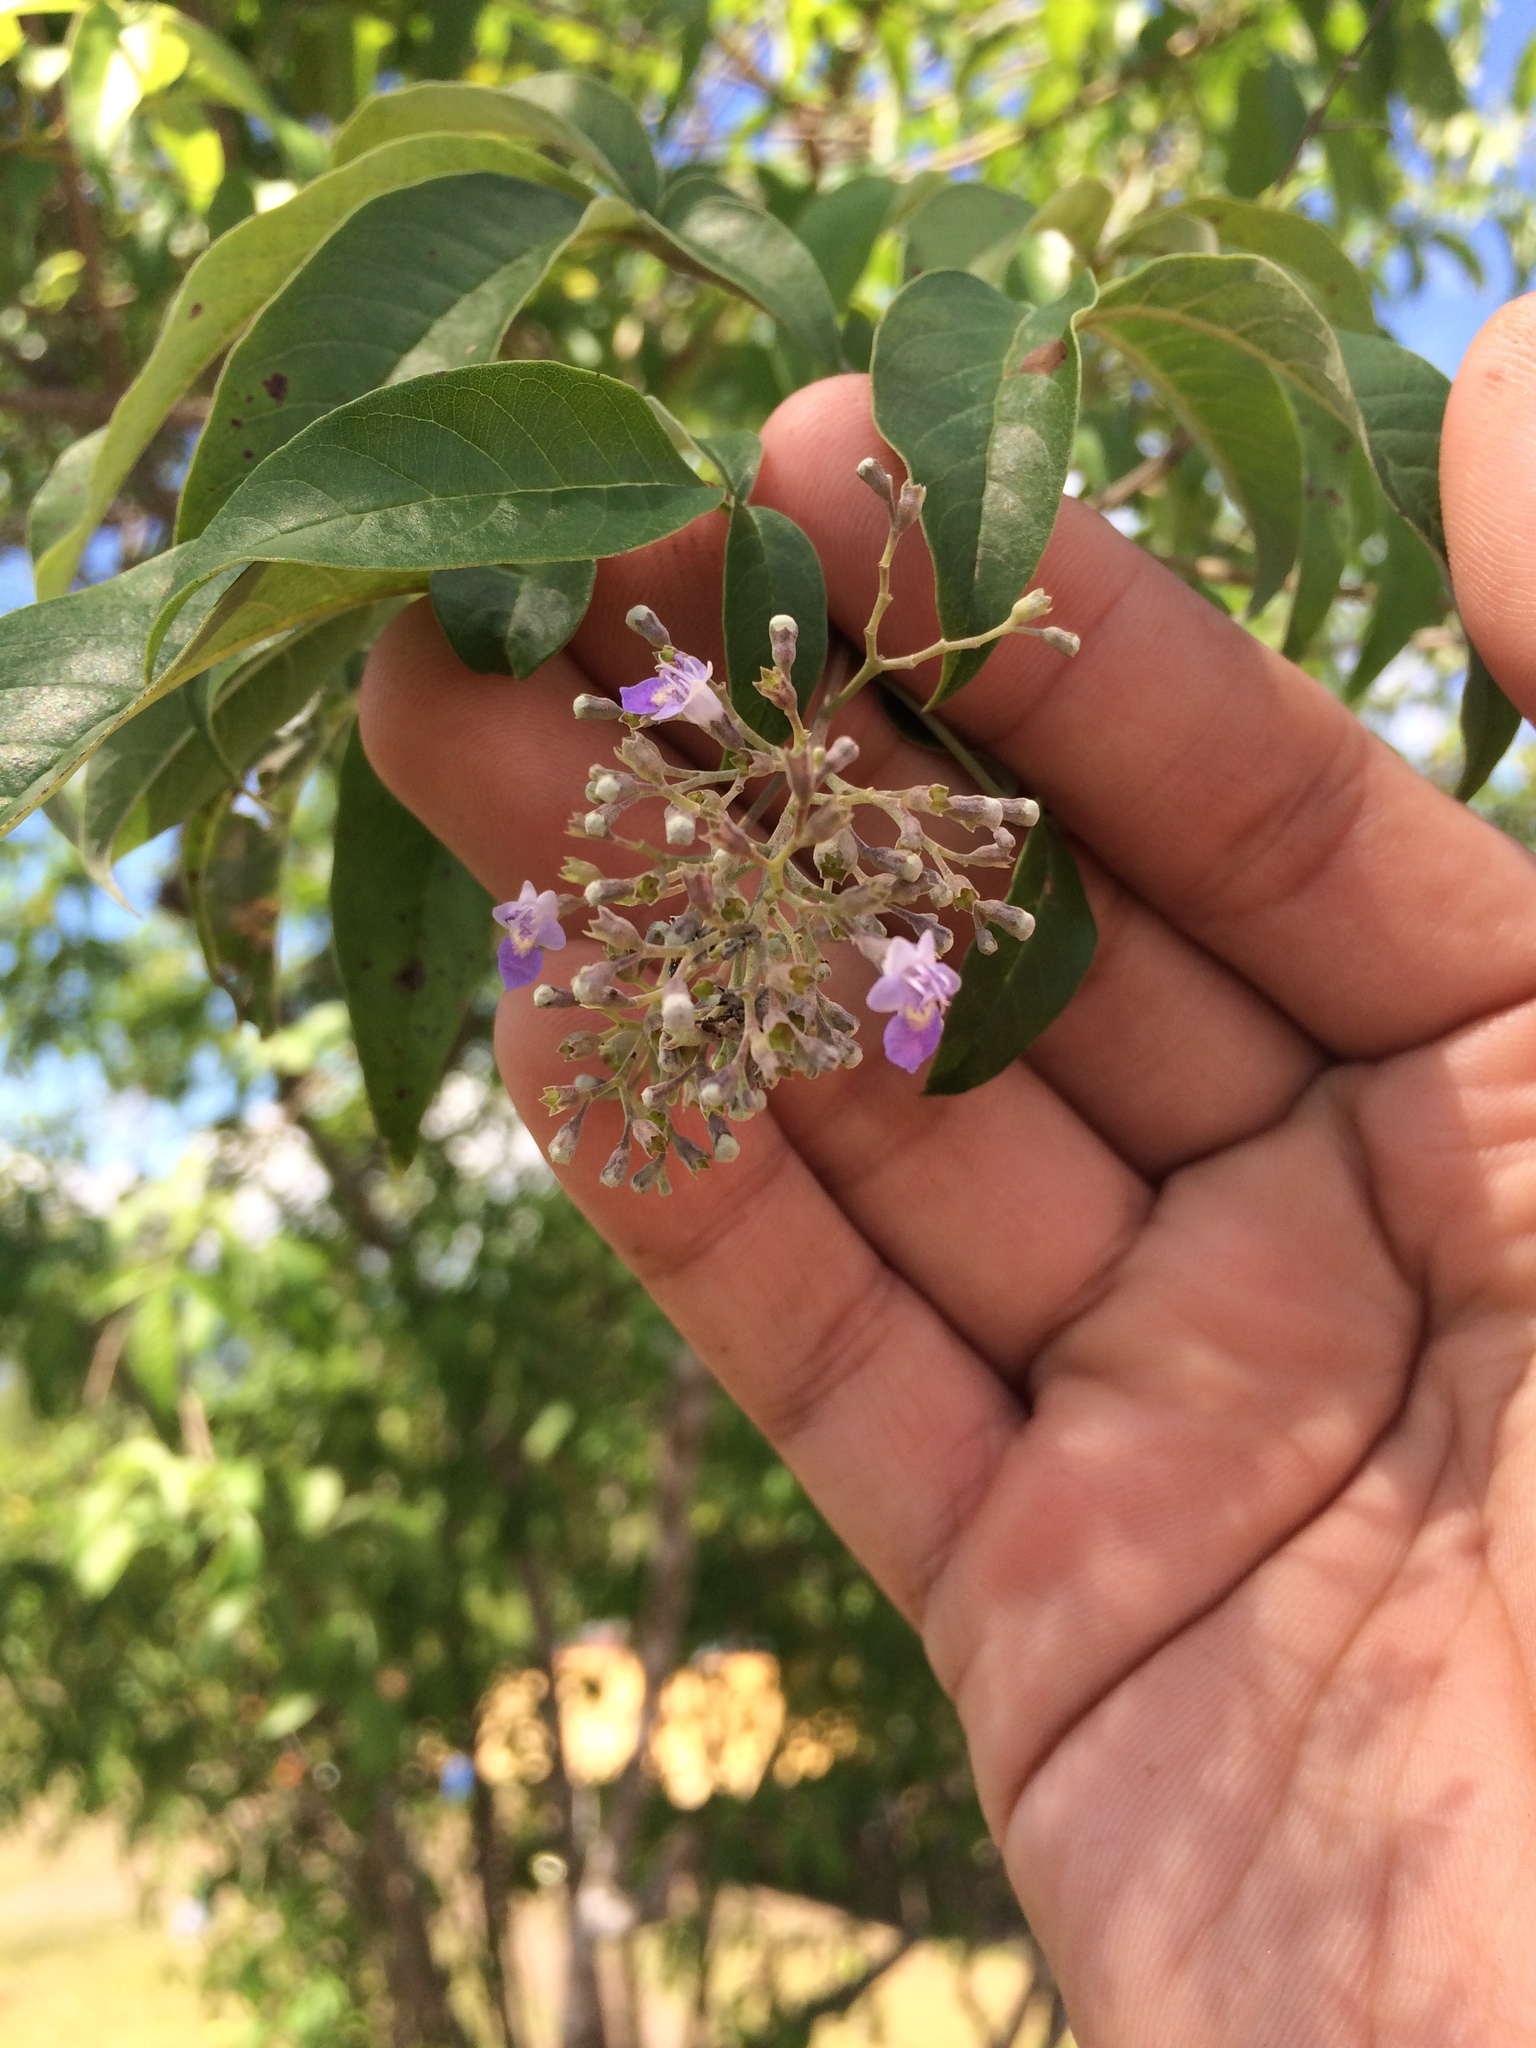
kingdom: Plantae
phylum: Tracheophyta
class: Magnoliopsida
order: Lamiales
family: Lamiaceae
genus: Vitex
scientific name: Vitex negundo
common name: Chinese chastetree
